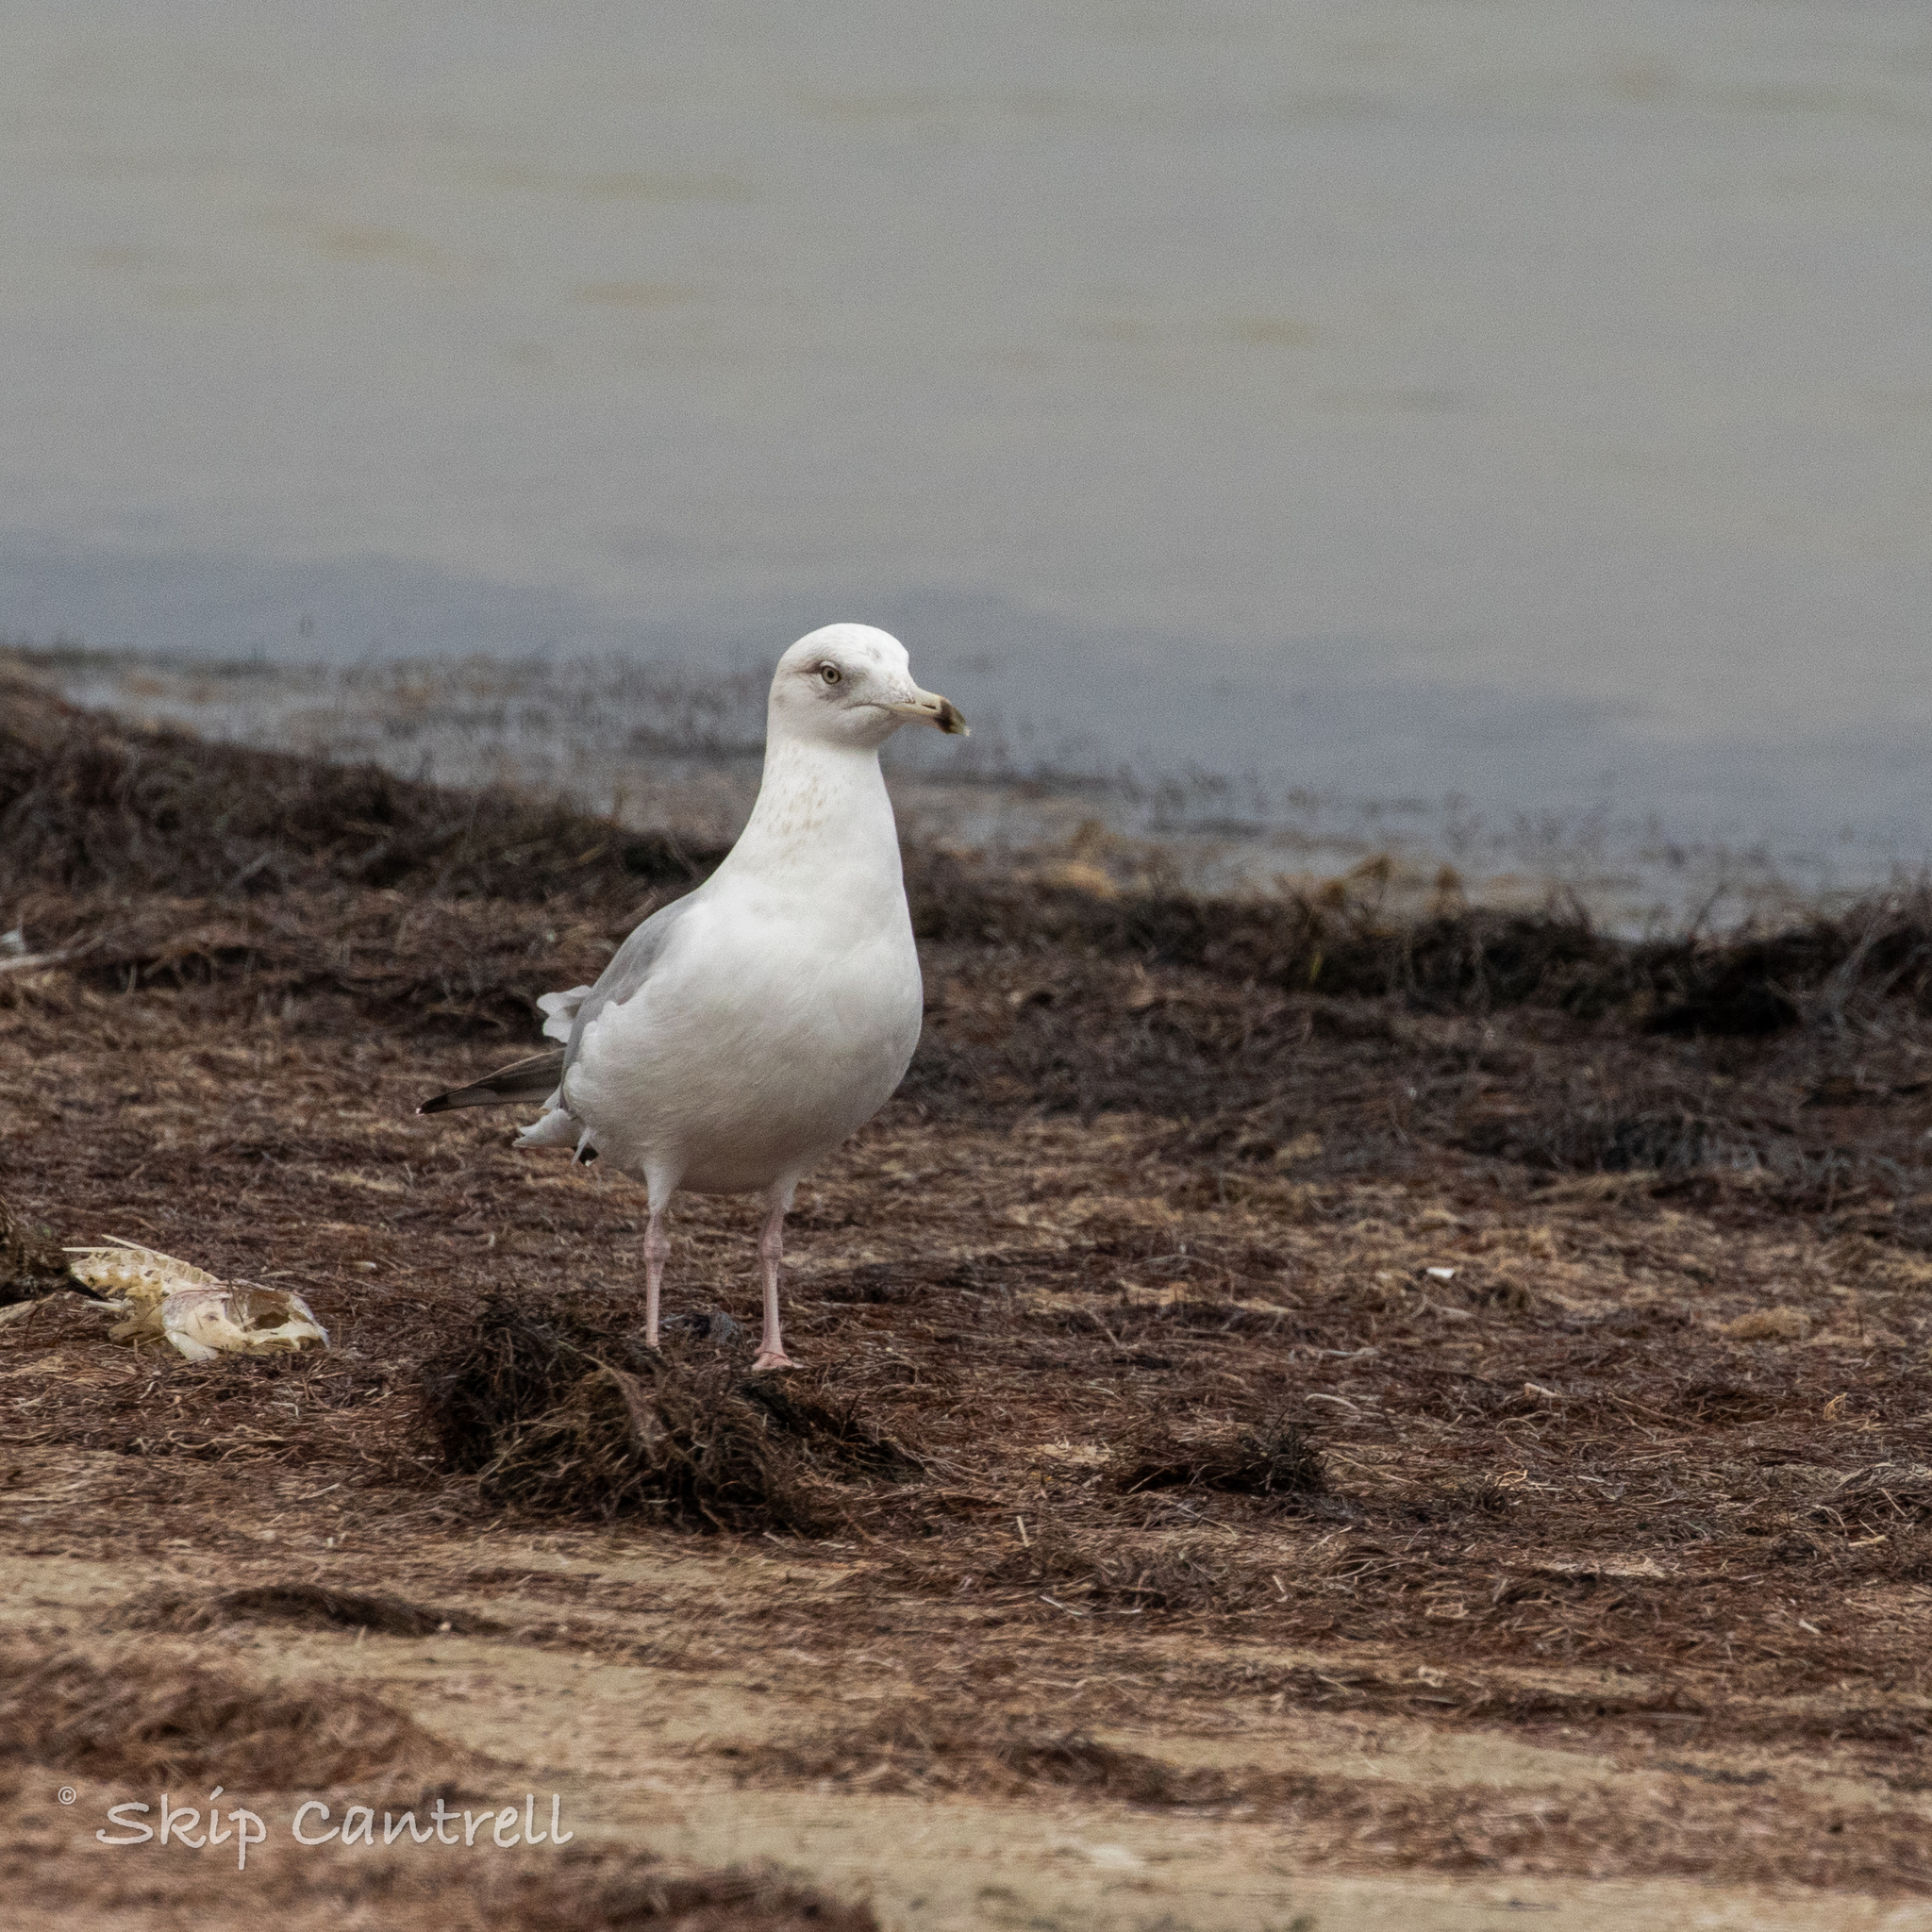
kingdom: Animalia
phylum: Chordata
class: Aves
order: Charadriiformes
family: Laridae
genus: Larus
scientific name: Larus argentatus
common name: Herring gull
